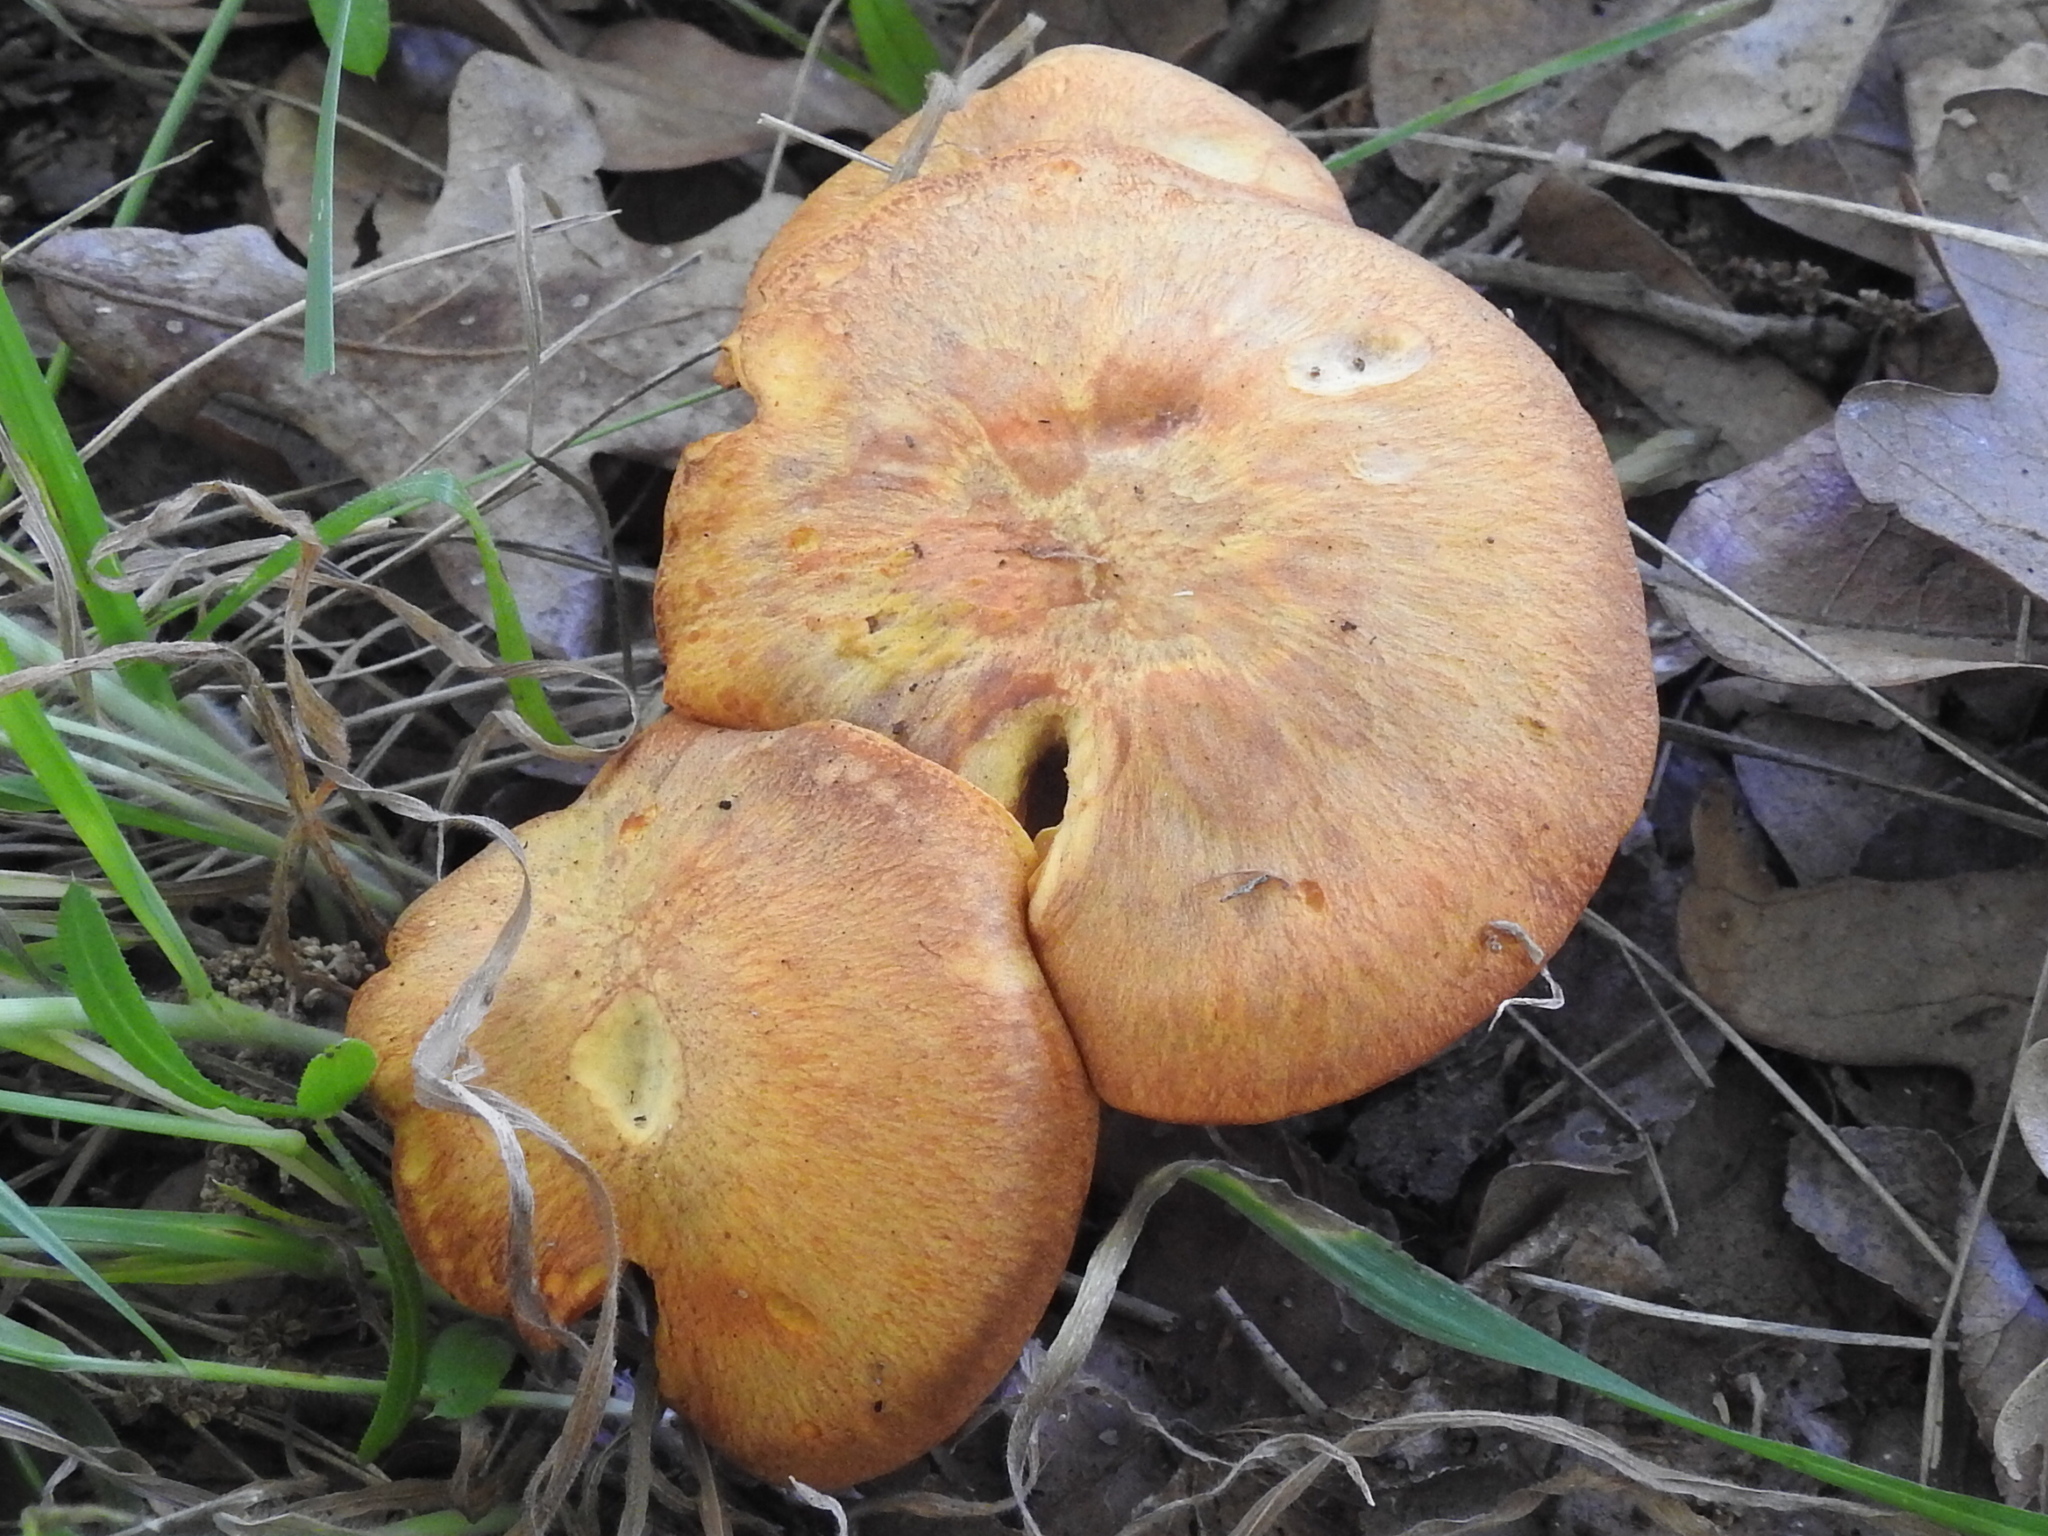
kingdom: Fungi
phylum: Basidiomycota
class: Agaricomycetes
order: Agaricales
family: Omphalotaceae
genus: Omphalotus
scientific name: Omphalotus subilludens
